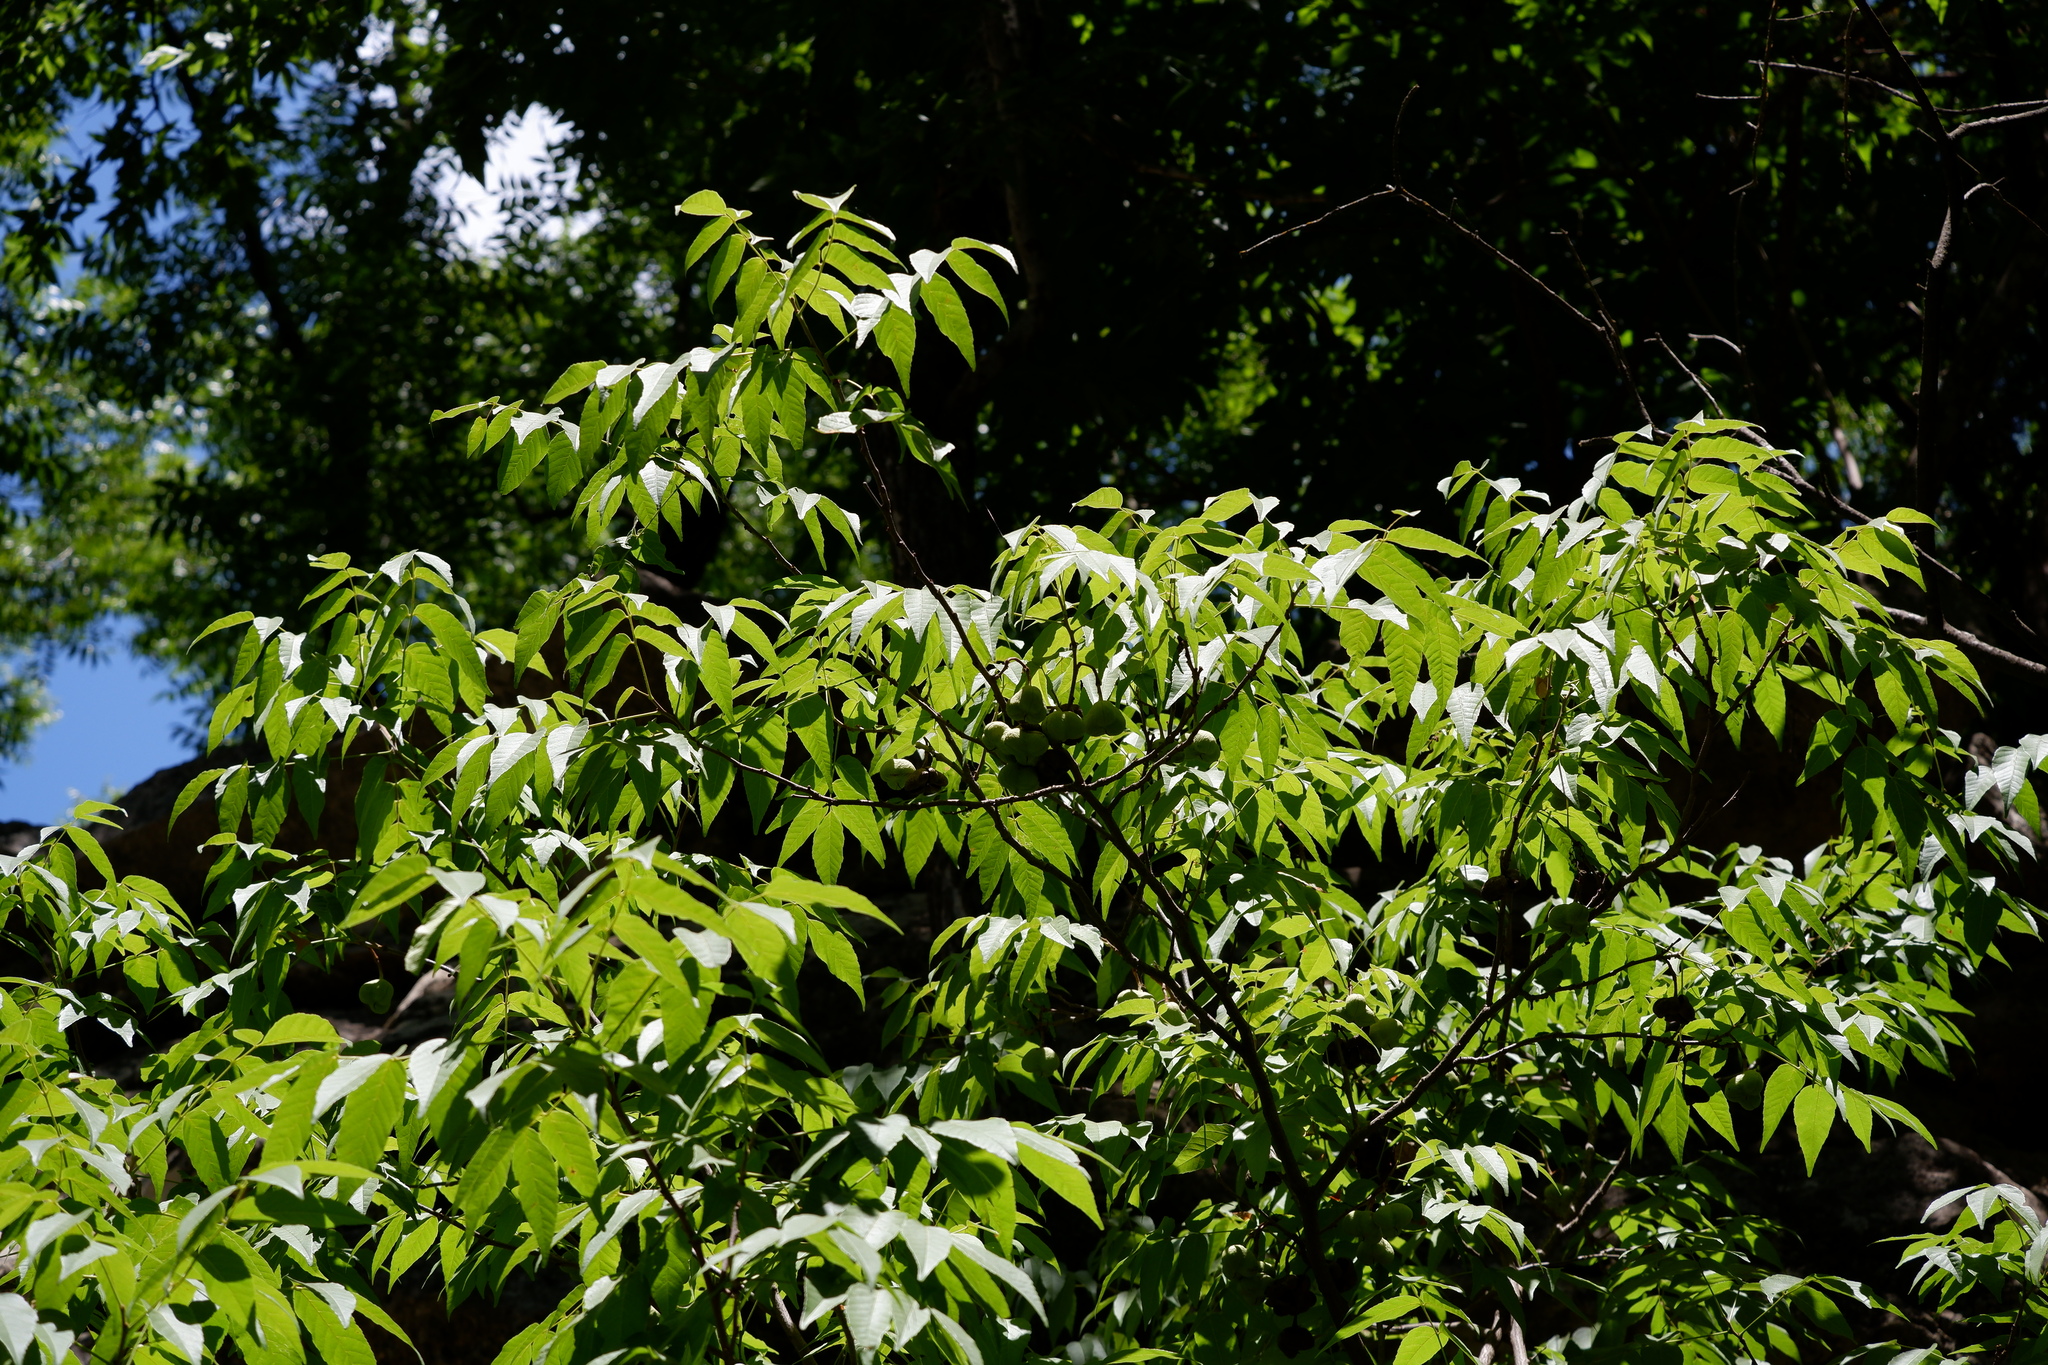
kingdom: Plantae
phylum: Tracheophyta
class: Magnoliopsida
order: Sapindales
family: Sapindaceae
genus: Ungnadia
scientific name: Ungnadia speciosa
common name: Texas-buckeye
